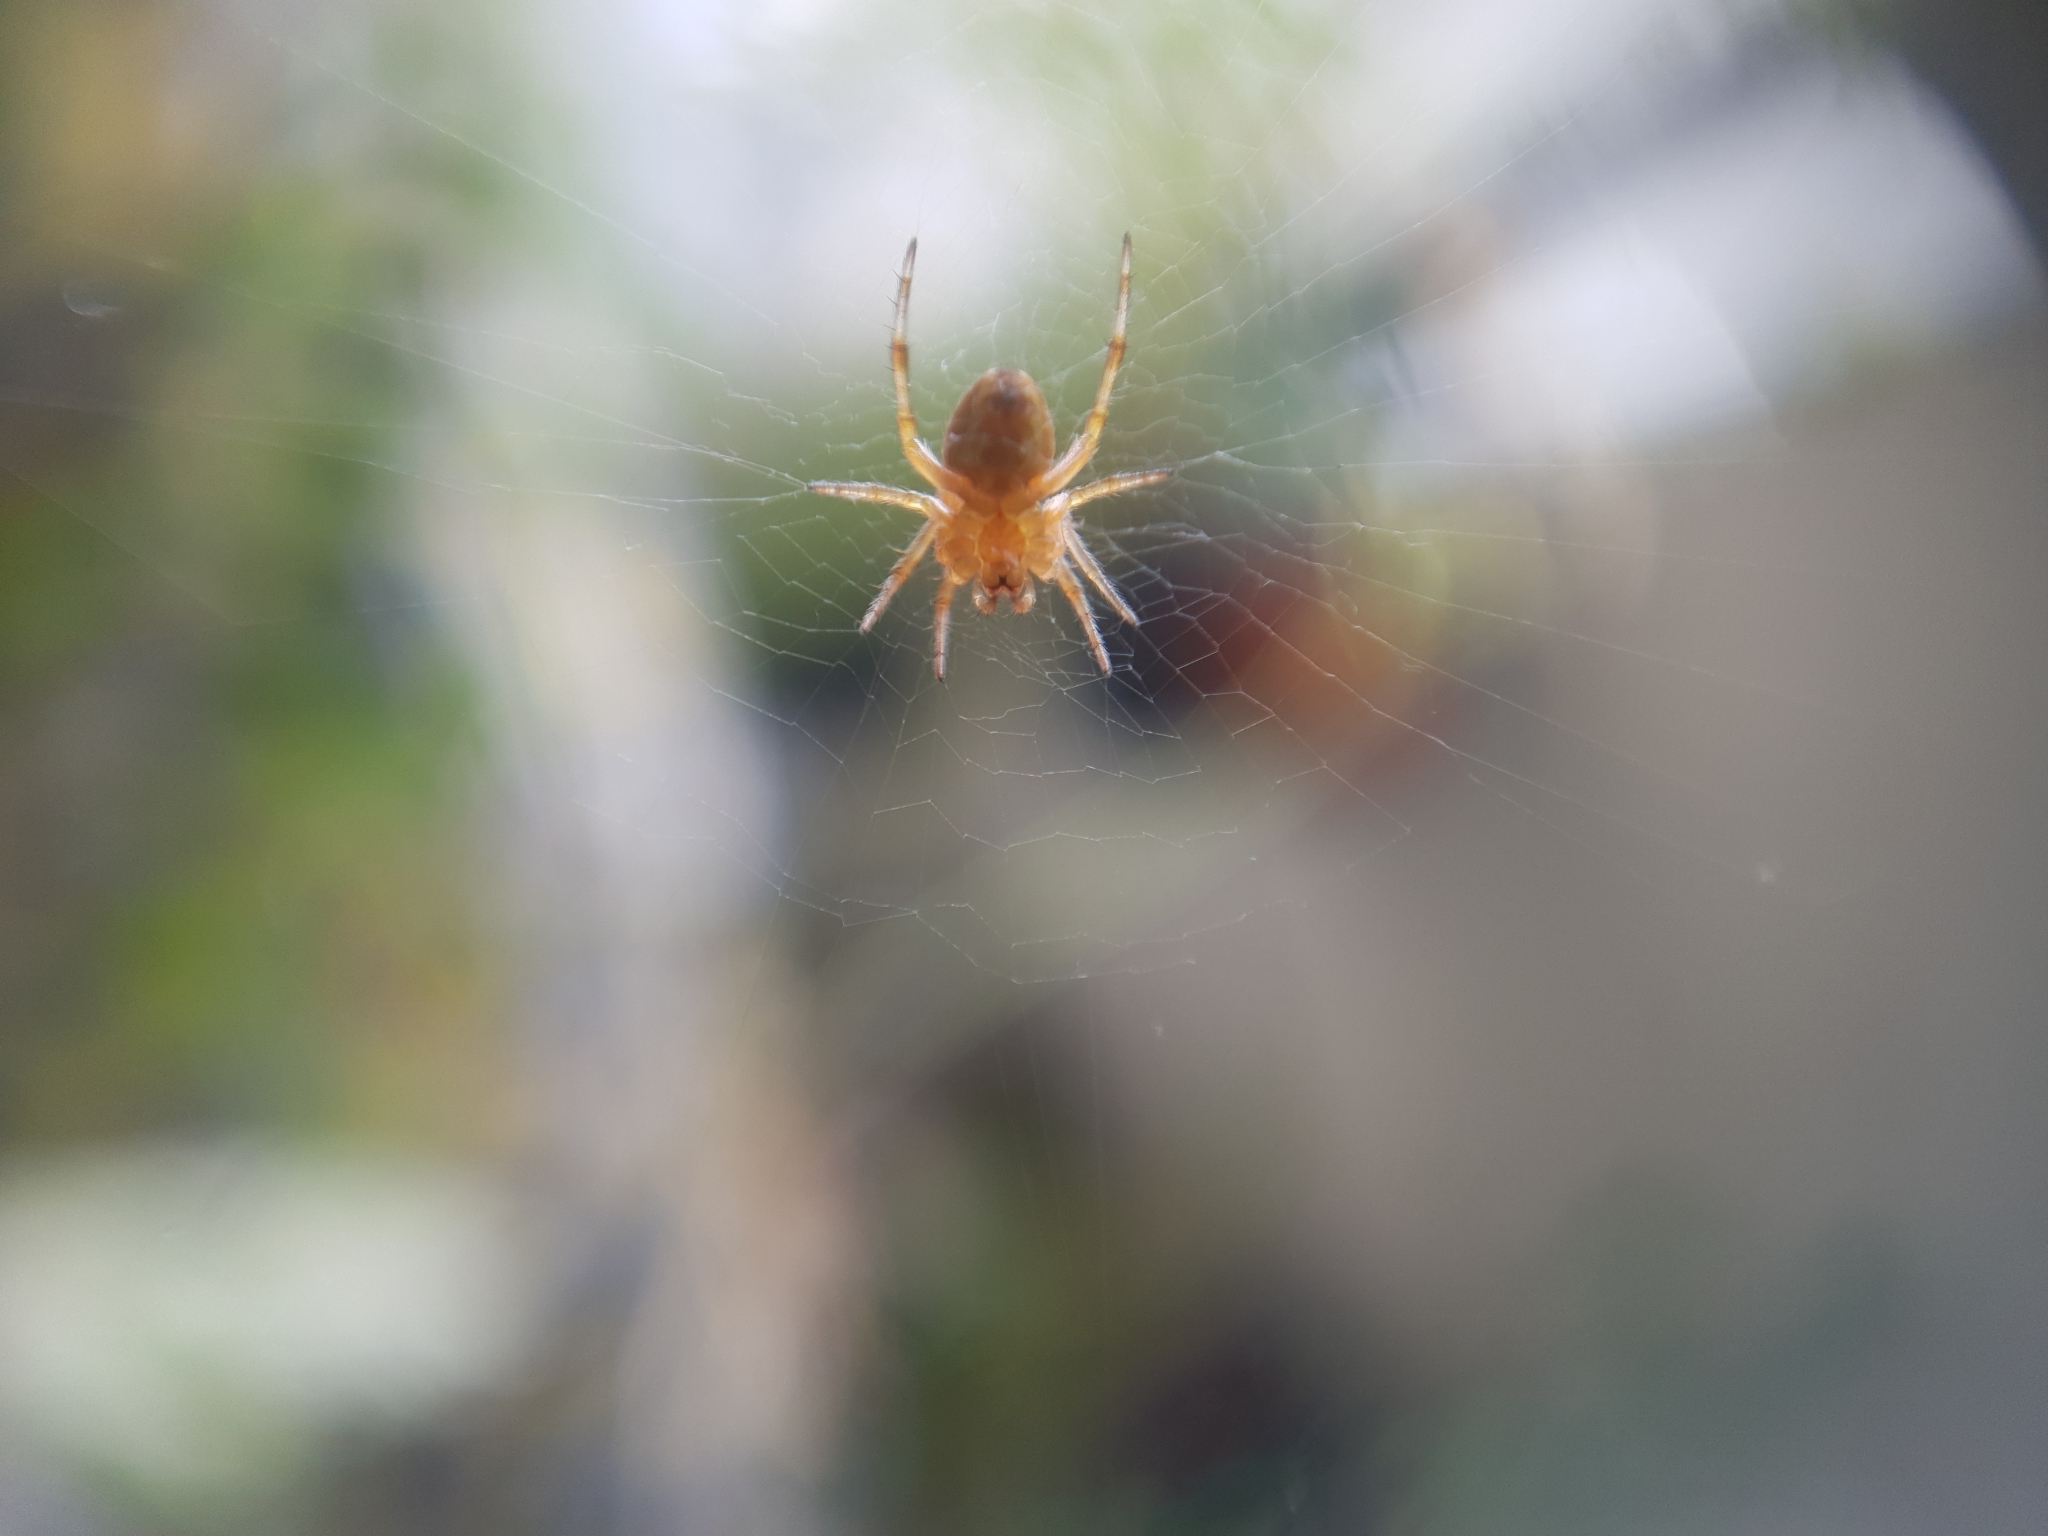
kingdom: Animalia
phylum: Arthropoda
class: Arachnida
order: Araneae
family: Araneidae
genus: Araneus
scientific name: Araneus diadematus
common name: Cross orbweaver
